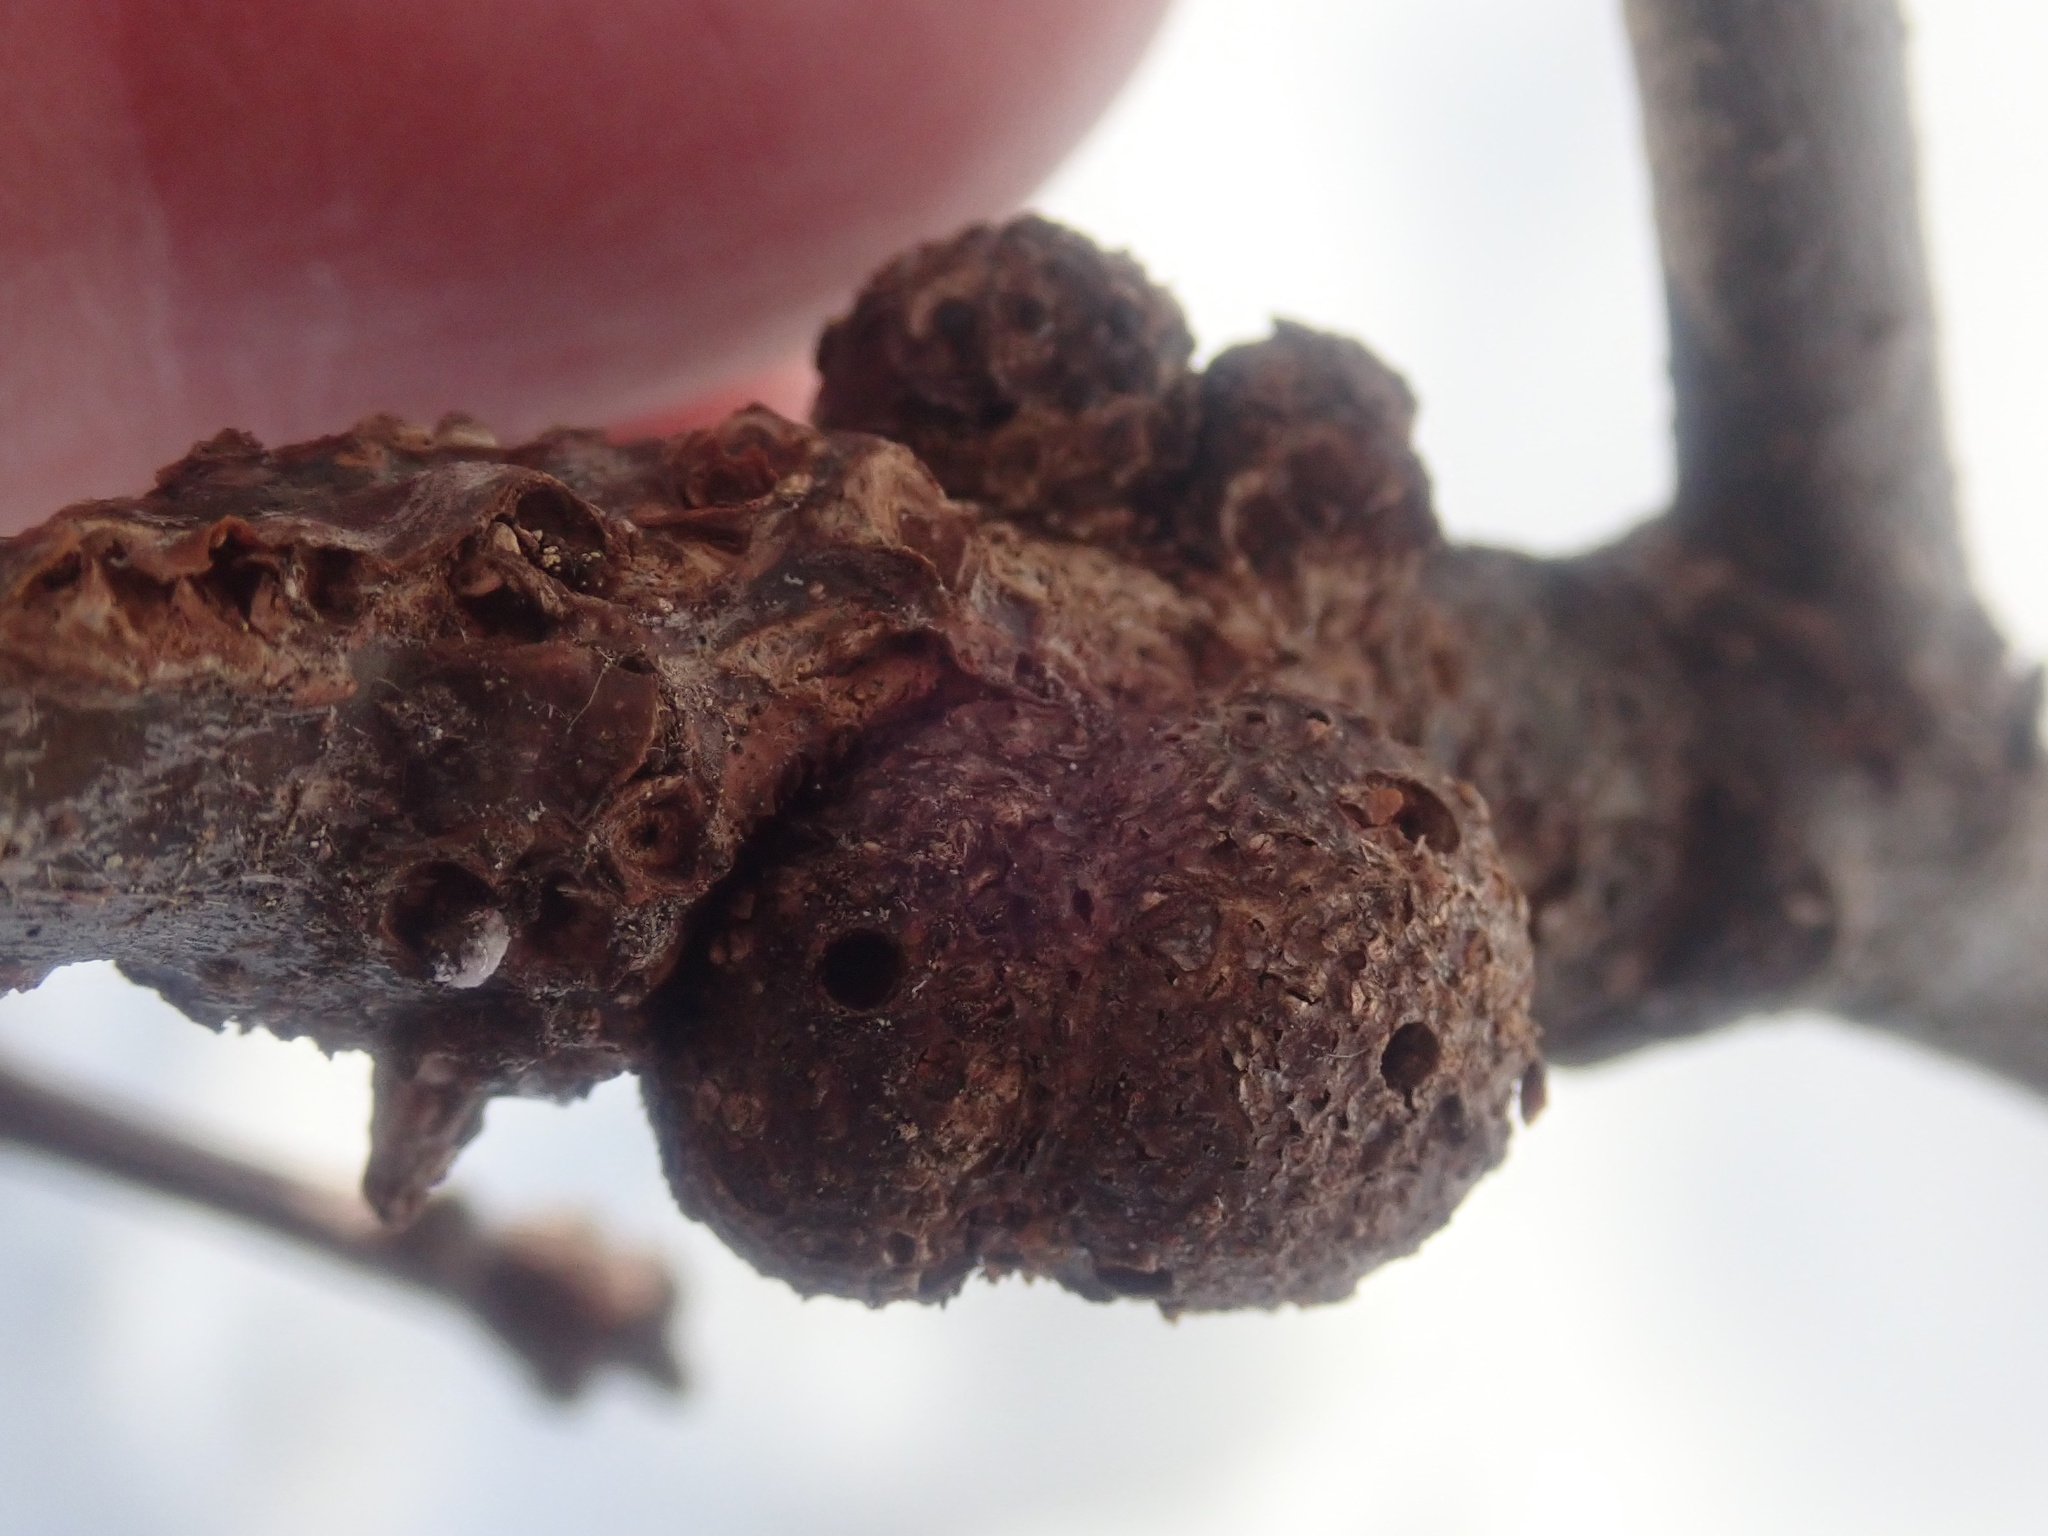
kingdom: Animalia
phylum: Arthropoda
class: Insecta
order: Hymenoptera
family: Cynipidae
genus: Callirhytis
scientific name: Callirhytis
